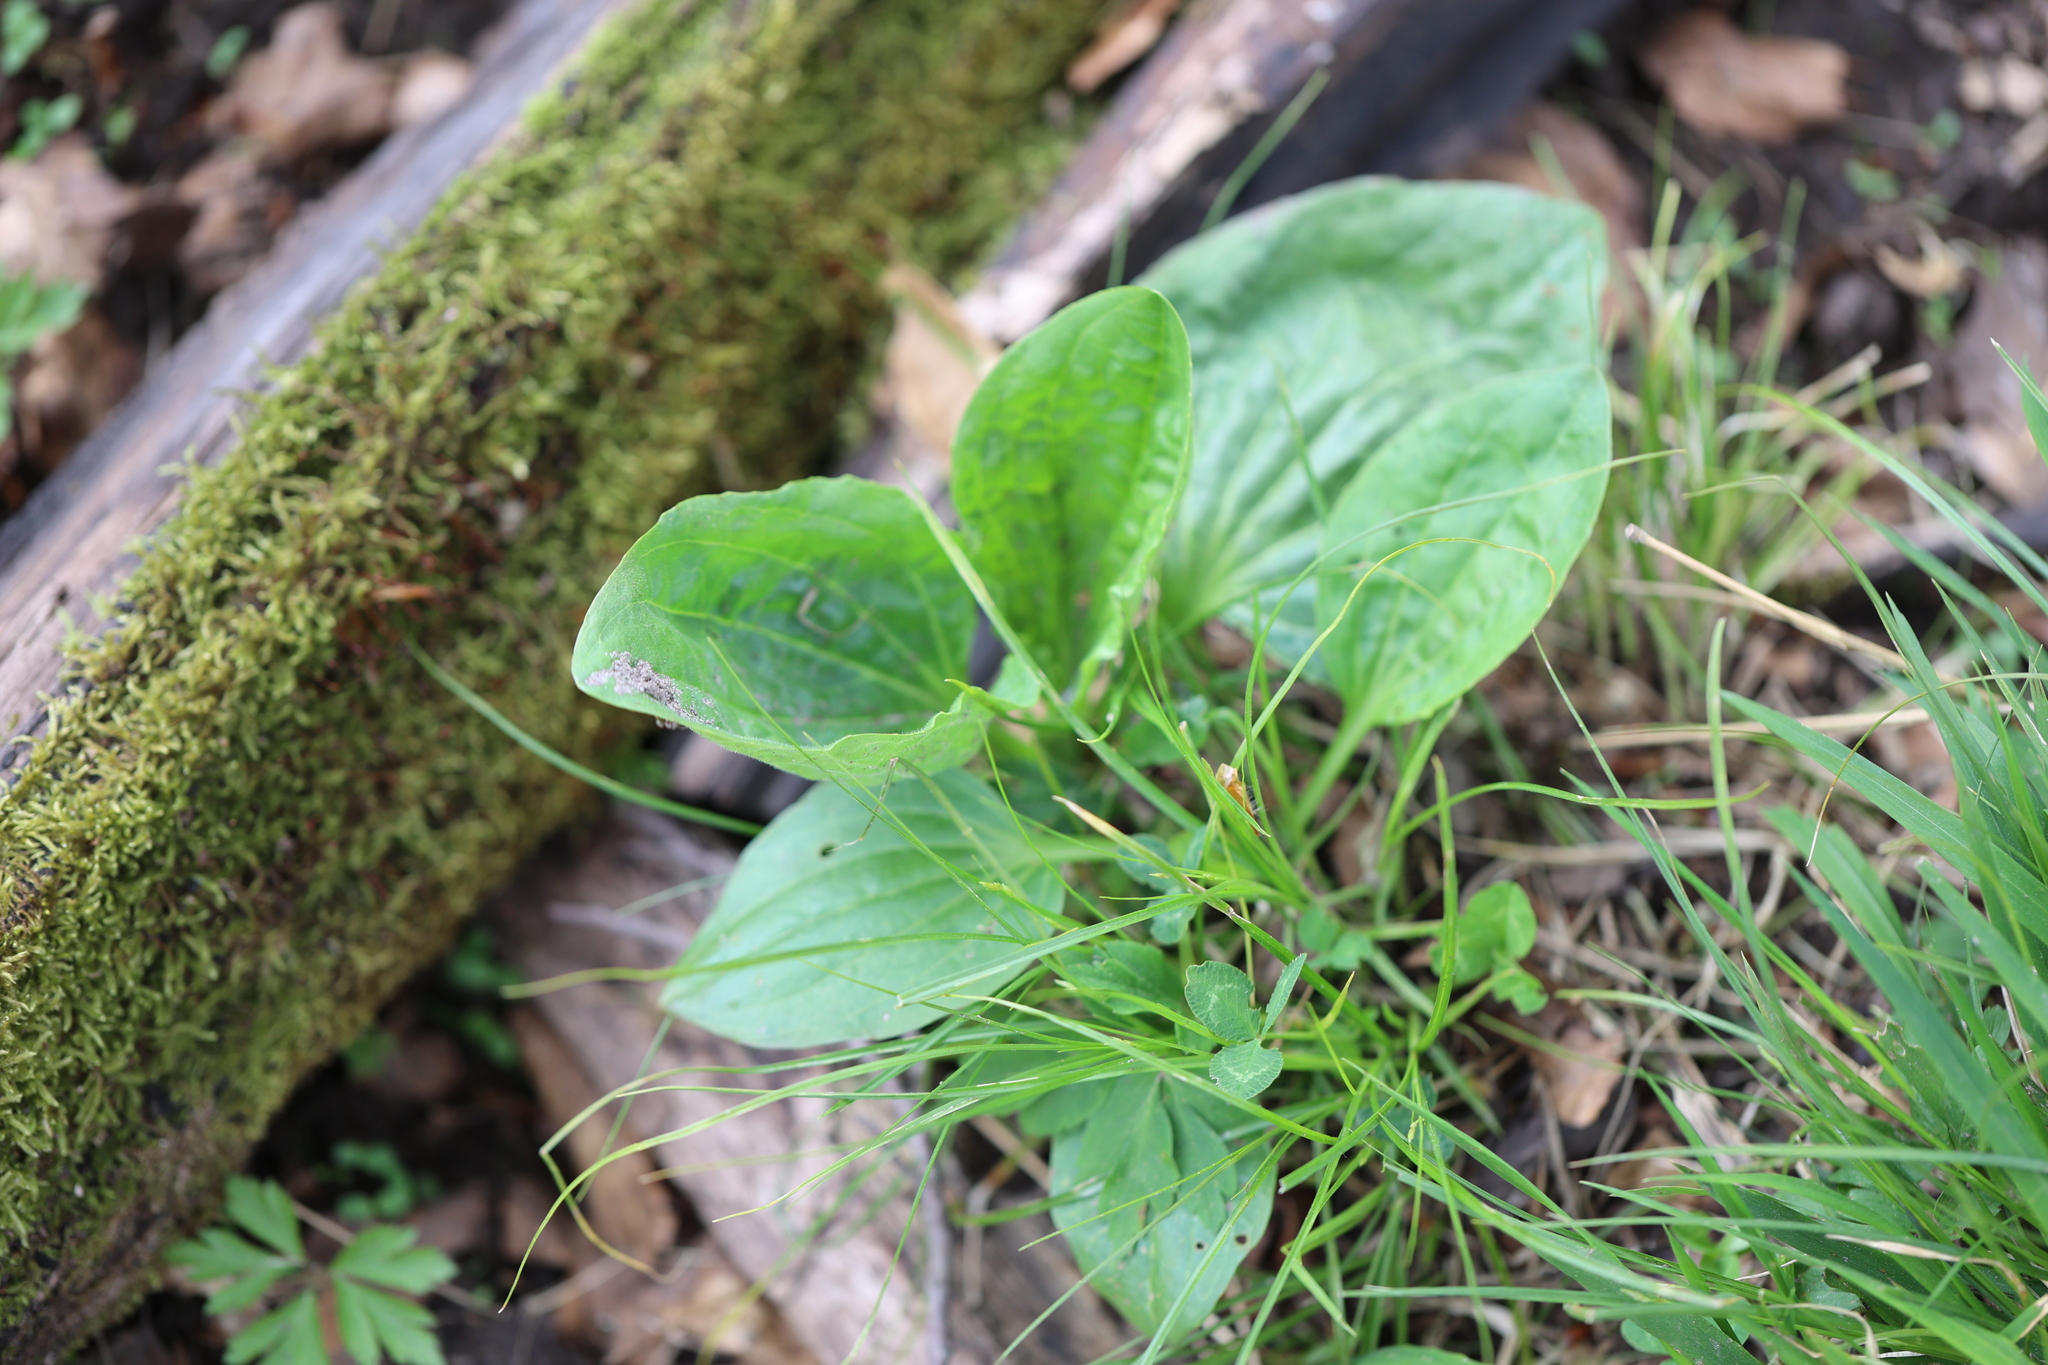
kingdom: Plantae
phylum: Tracheophyta
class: Magnoliopsida
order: Lamiales
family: Plantaginaceae
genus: Plantago
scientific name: Plantago major
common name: Common plantain
